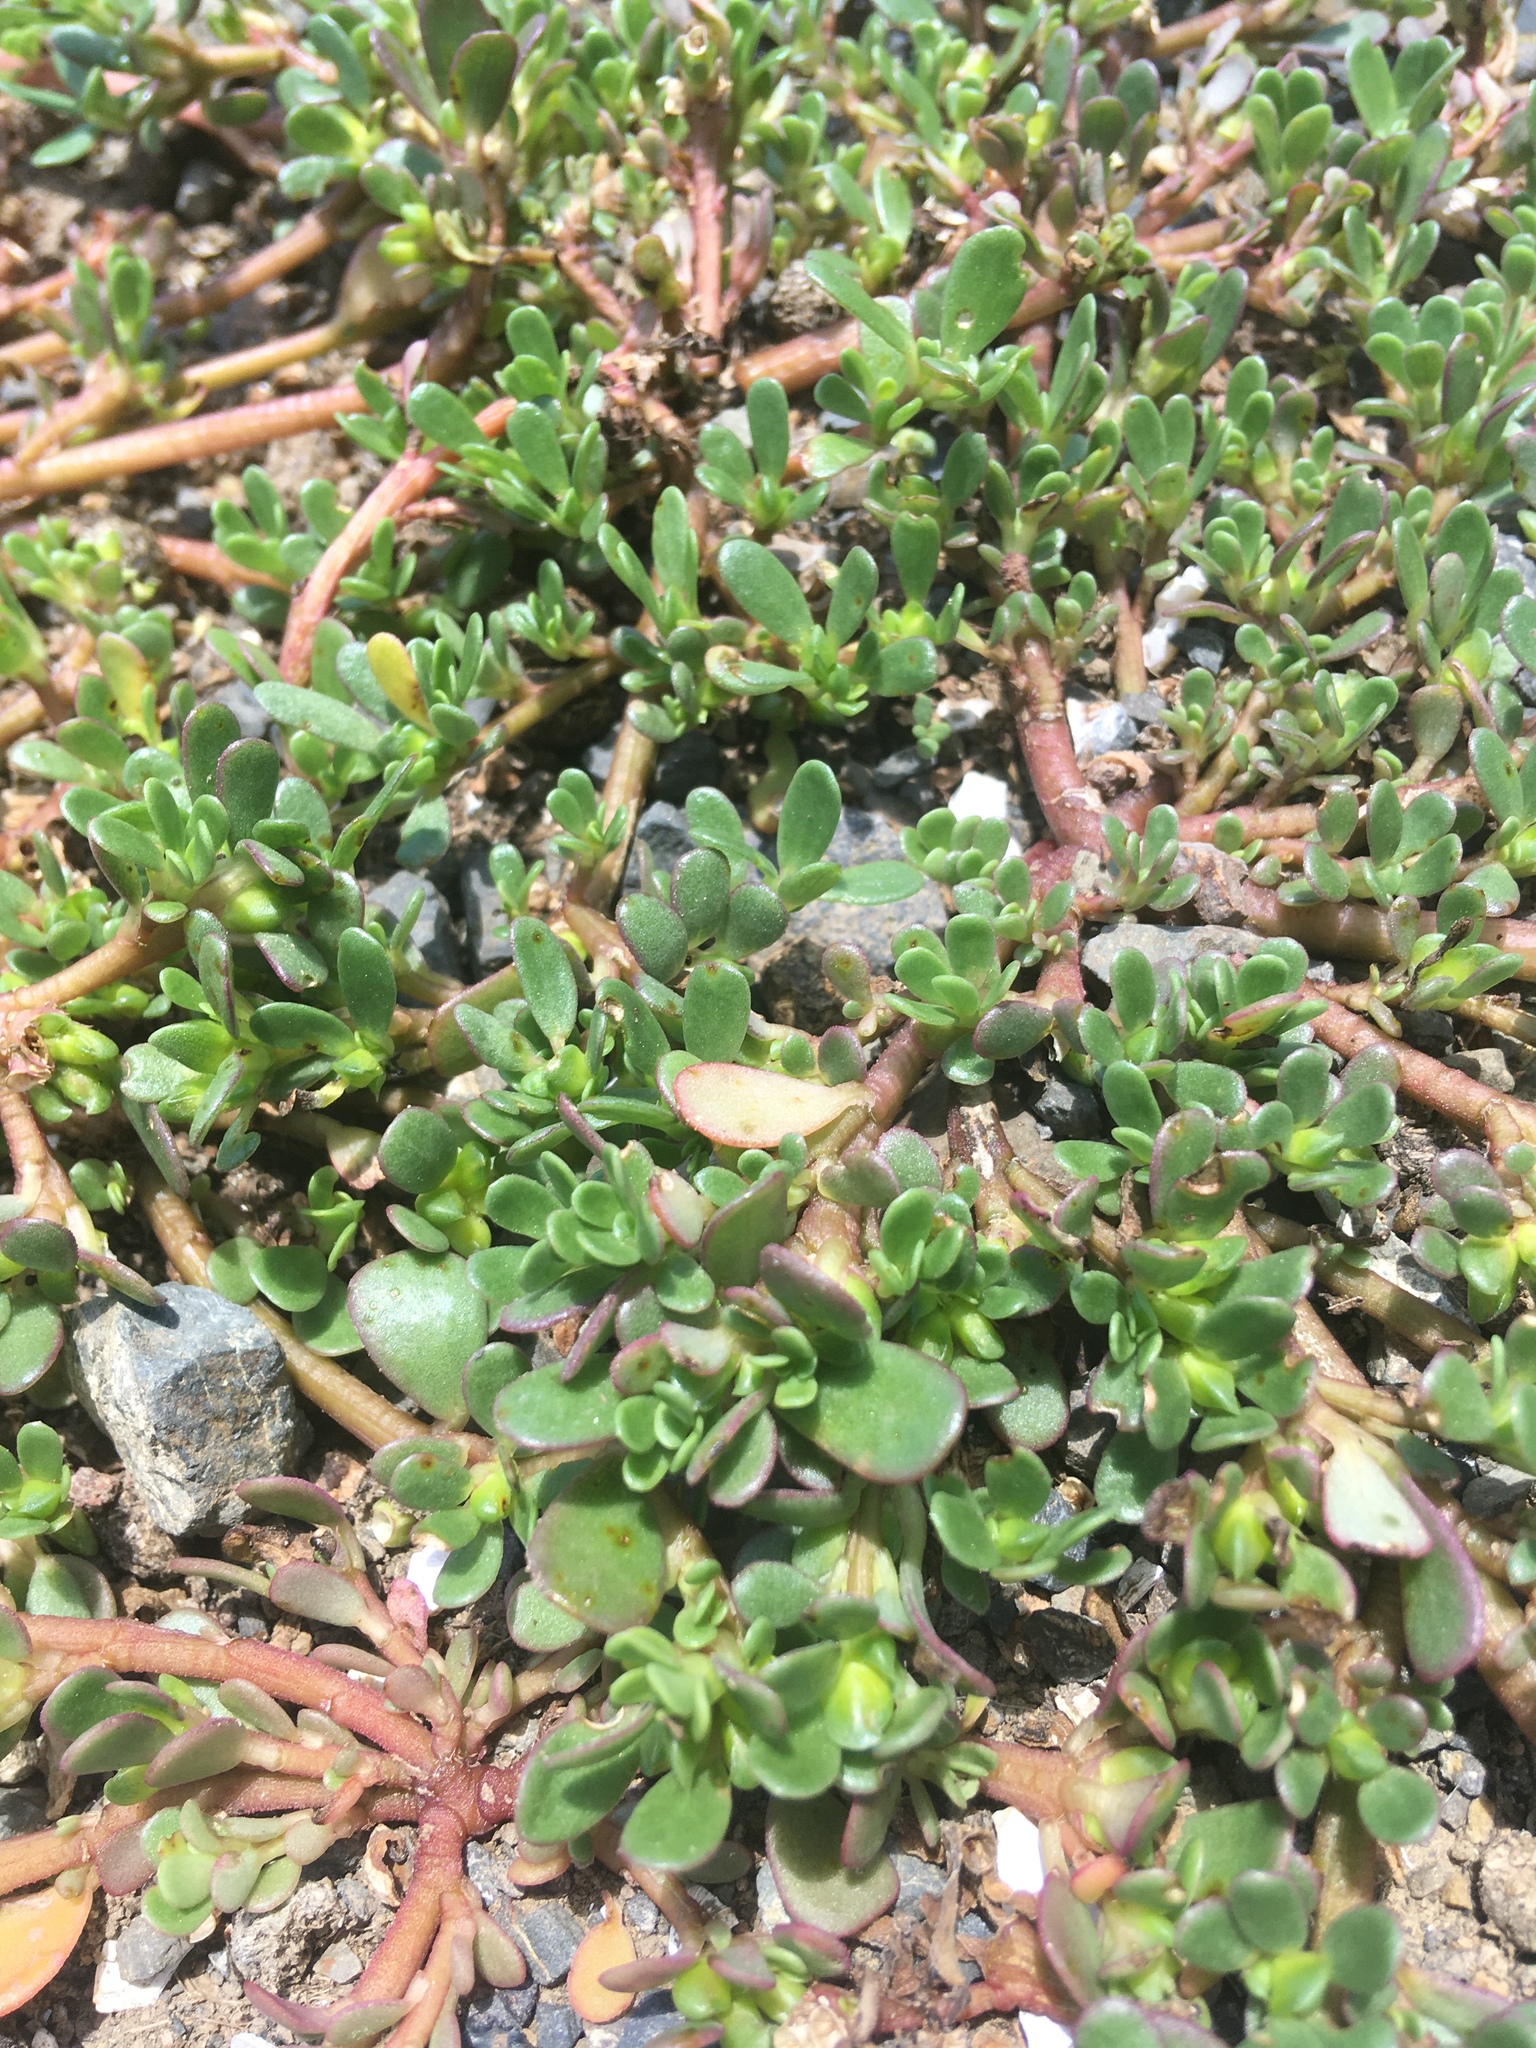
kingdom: Plantae
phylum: Tracheophyta
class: Magnoliopsida
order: Caryophyllales
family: Portulacaceae
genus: Portulaca
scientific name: Portulaca oleracea
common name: Common purslane
